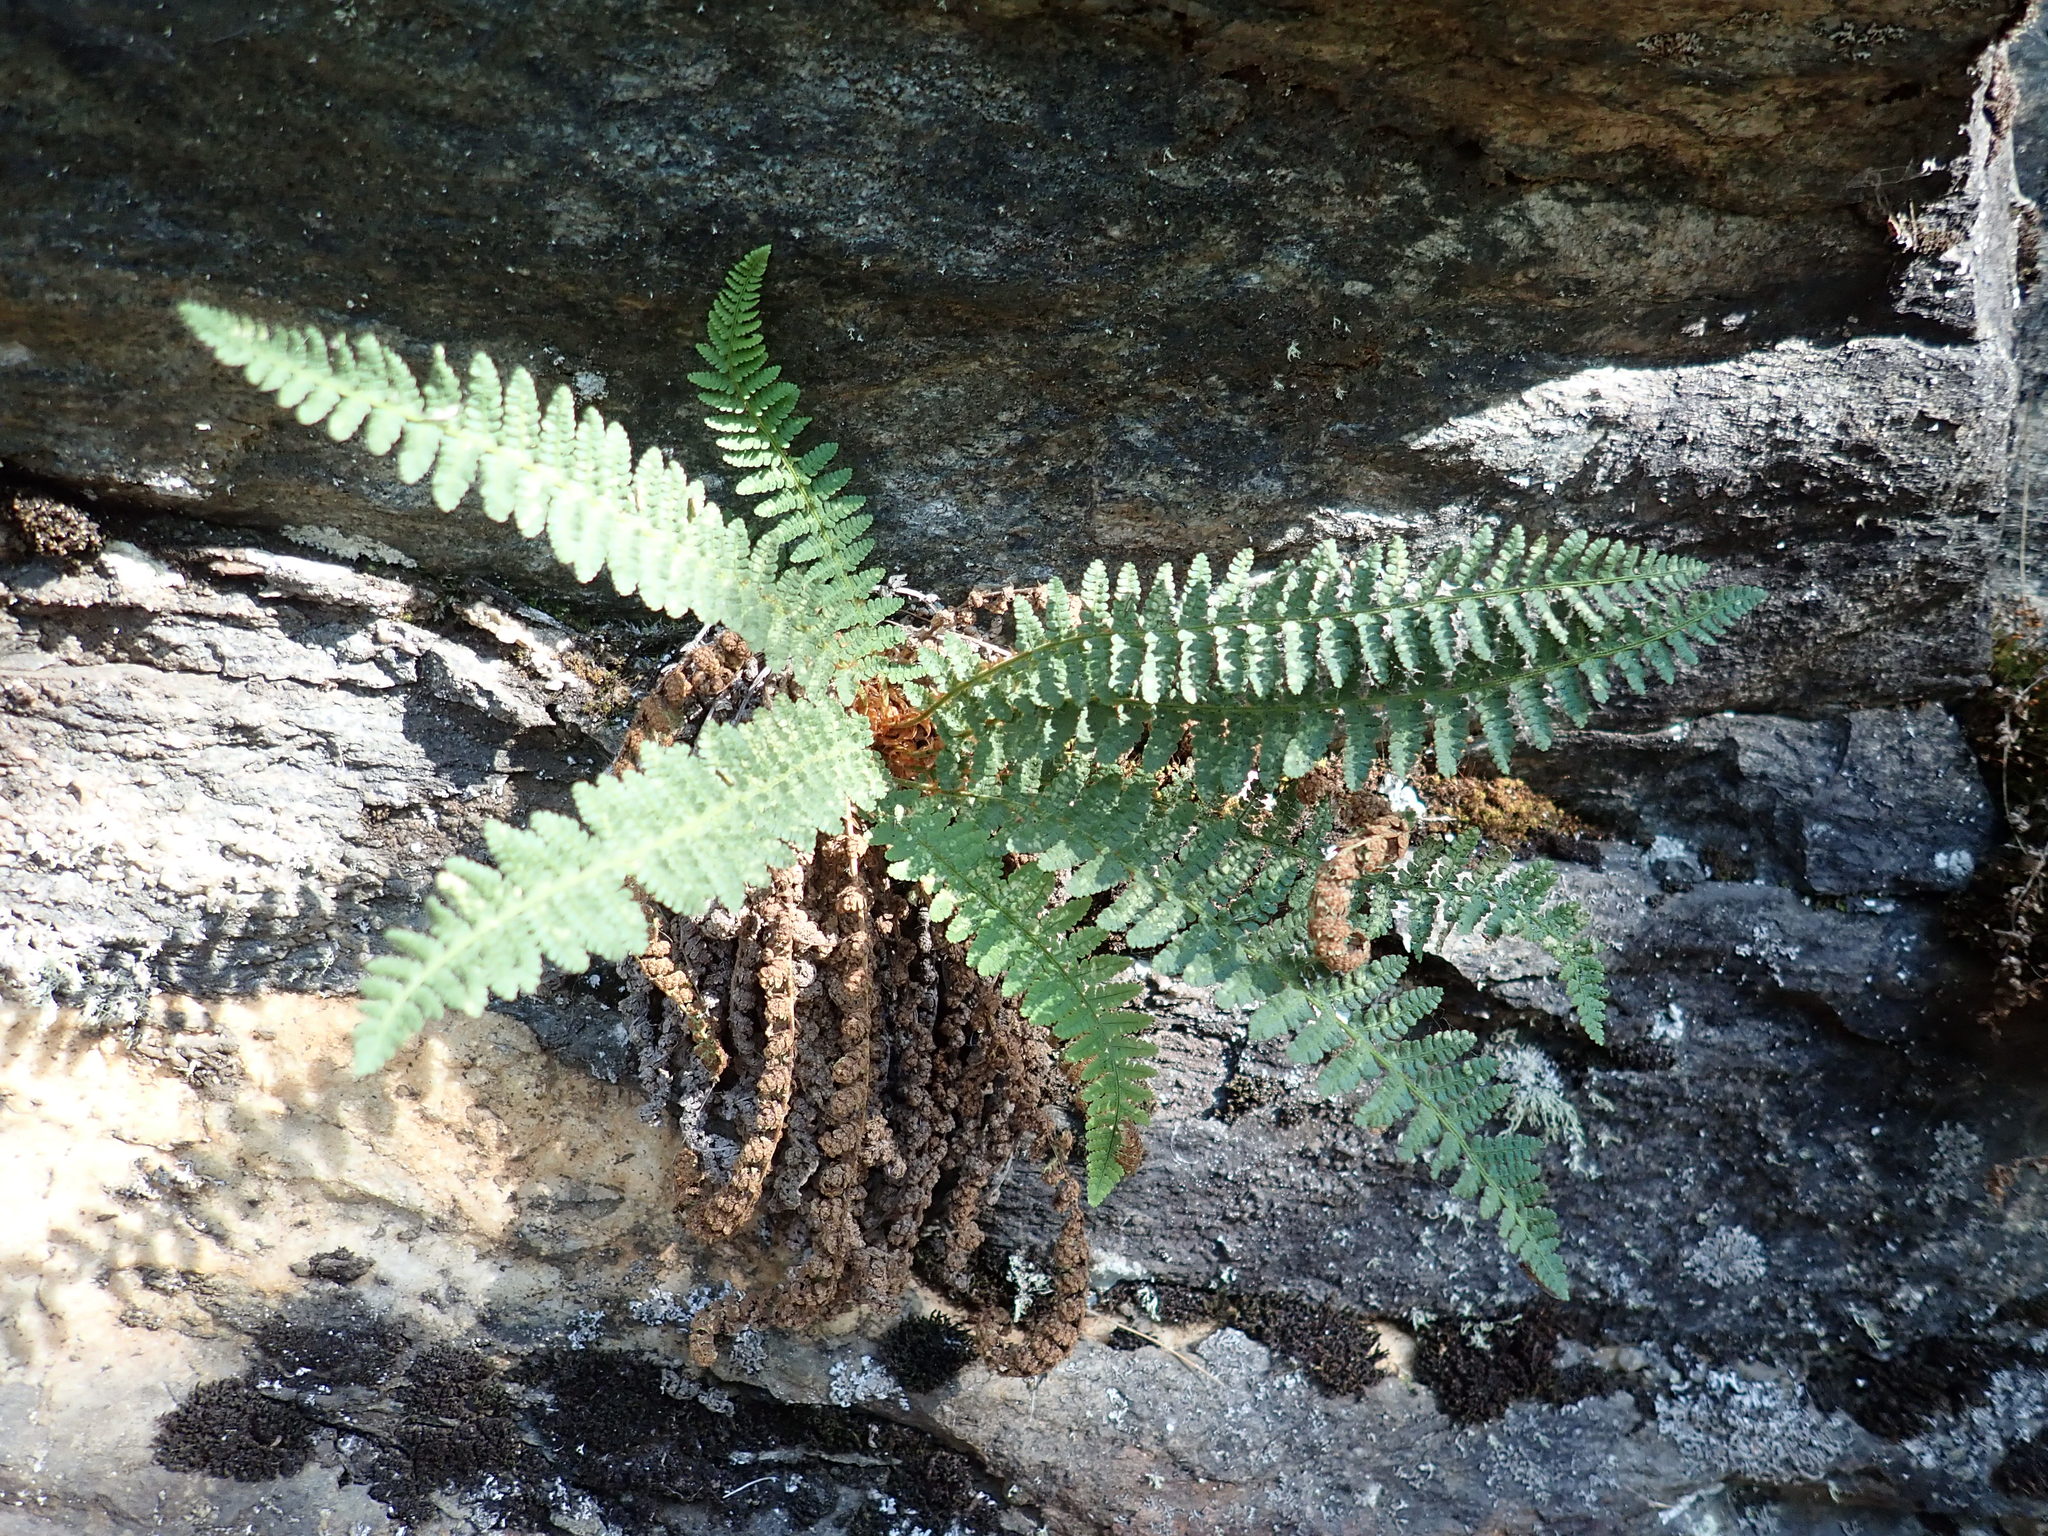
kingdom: Plantae
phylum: Tracheophyta
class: Polypodiopsida
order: Polypodiales
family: Dryopteridaceae
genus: Dryopteris
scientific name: Dryopteris fragrans
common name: Fragrant wood fern
